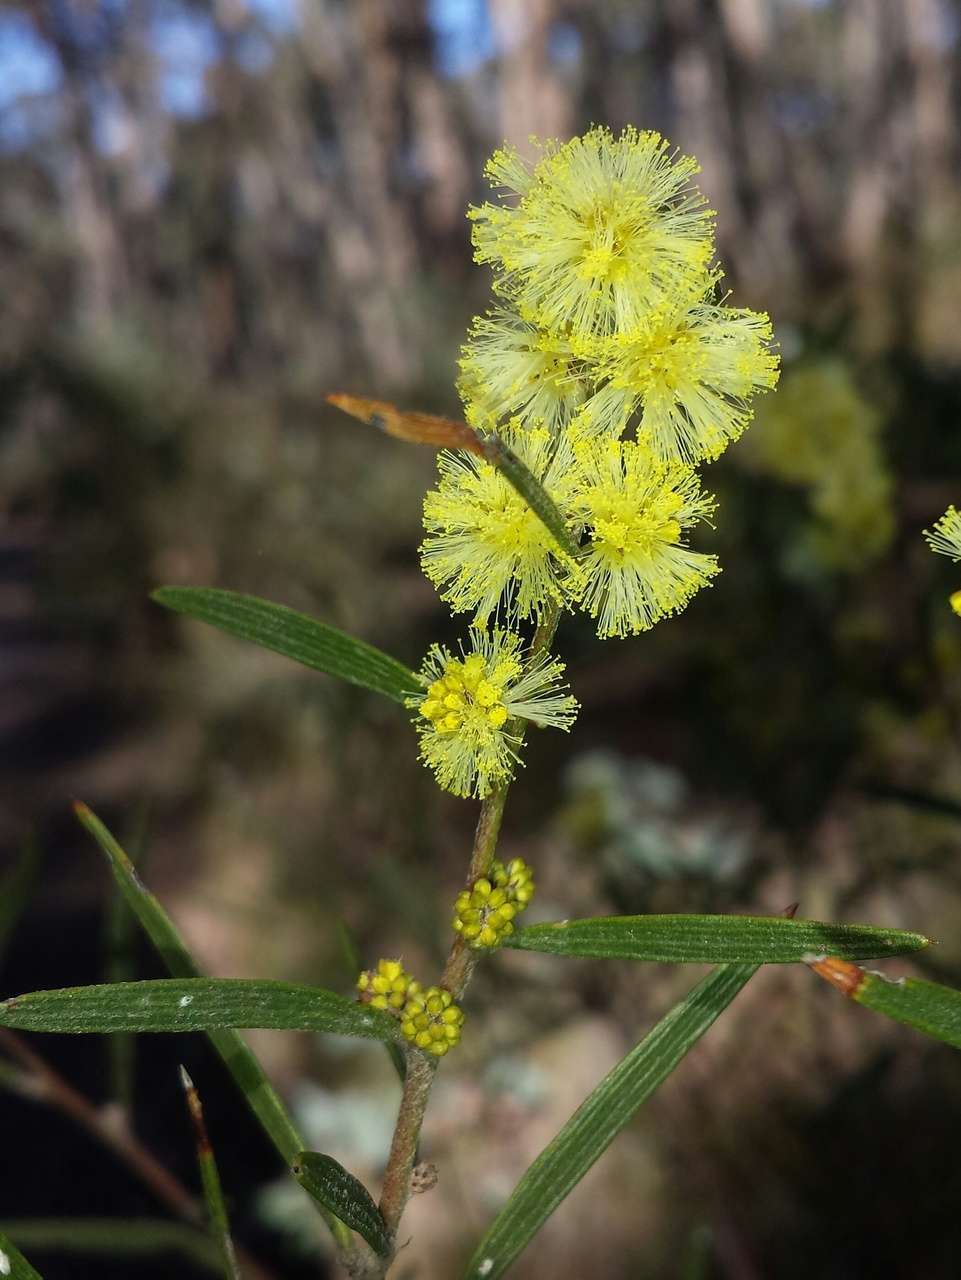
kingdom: Plantae
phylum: Tracheophyta
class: Magnoliopsida
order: Fabales
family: Fabaceae
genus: Acacia
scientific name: Acacia lanigera
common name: Hairy wattle
